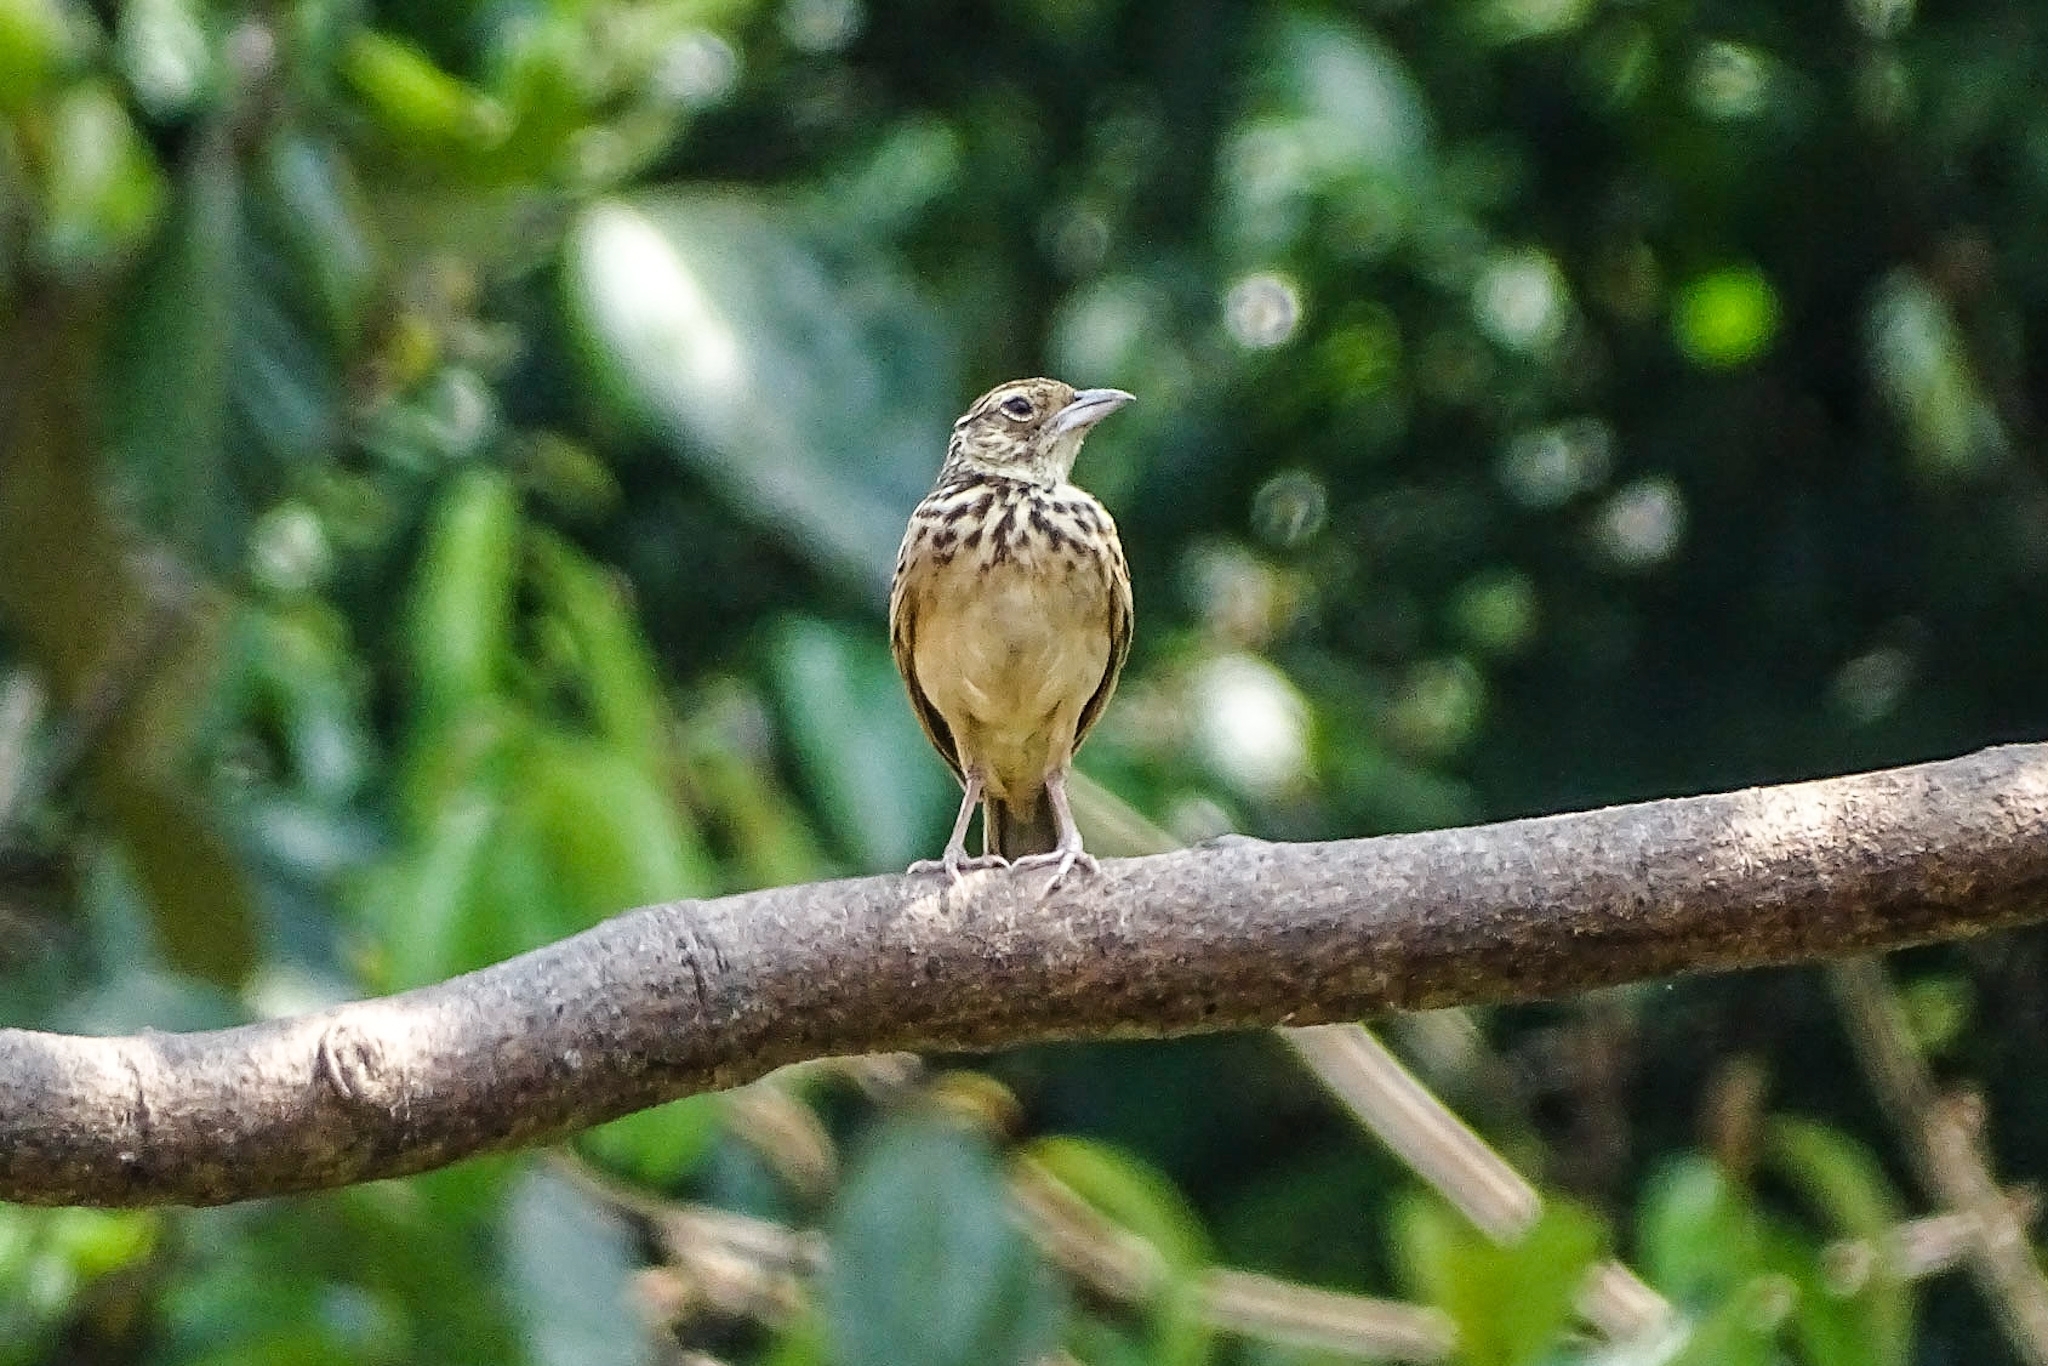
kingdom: Animalia
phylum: Chordata
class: Aves
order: Passeriformes
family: Alaudidae
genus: Mirafra
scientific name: Mirafra affinis
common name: Jerdon's bushlark
